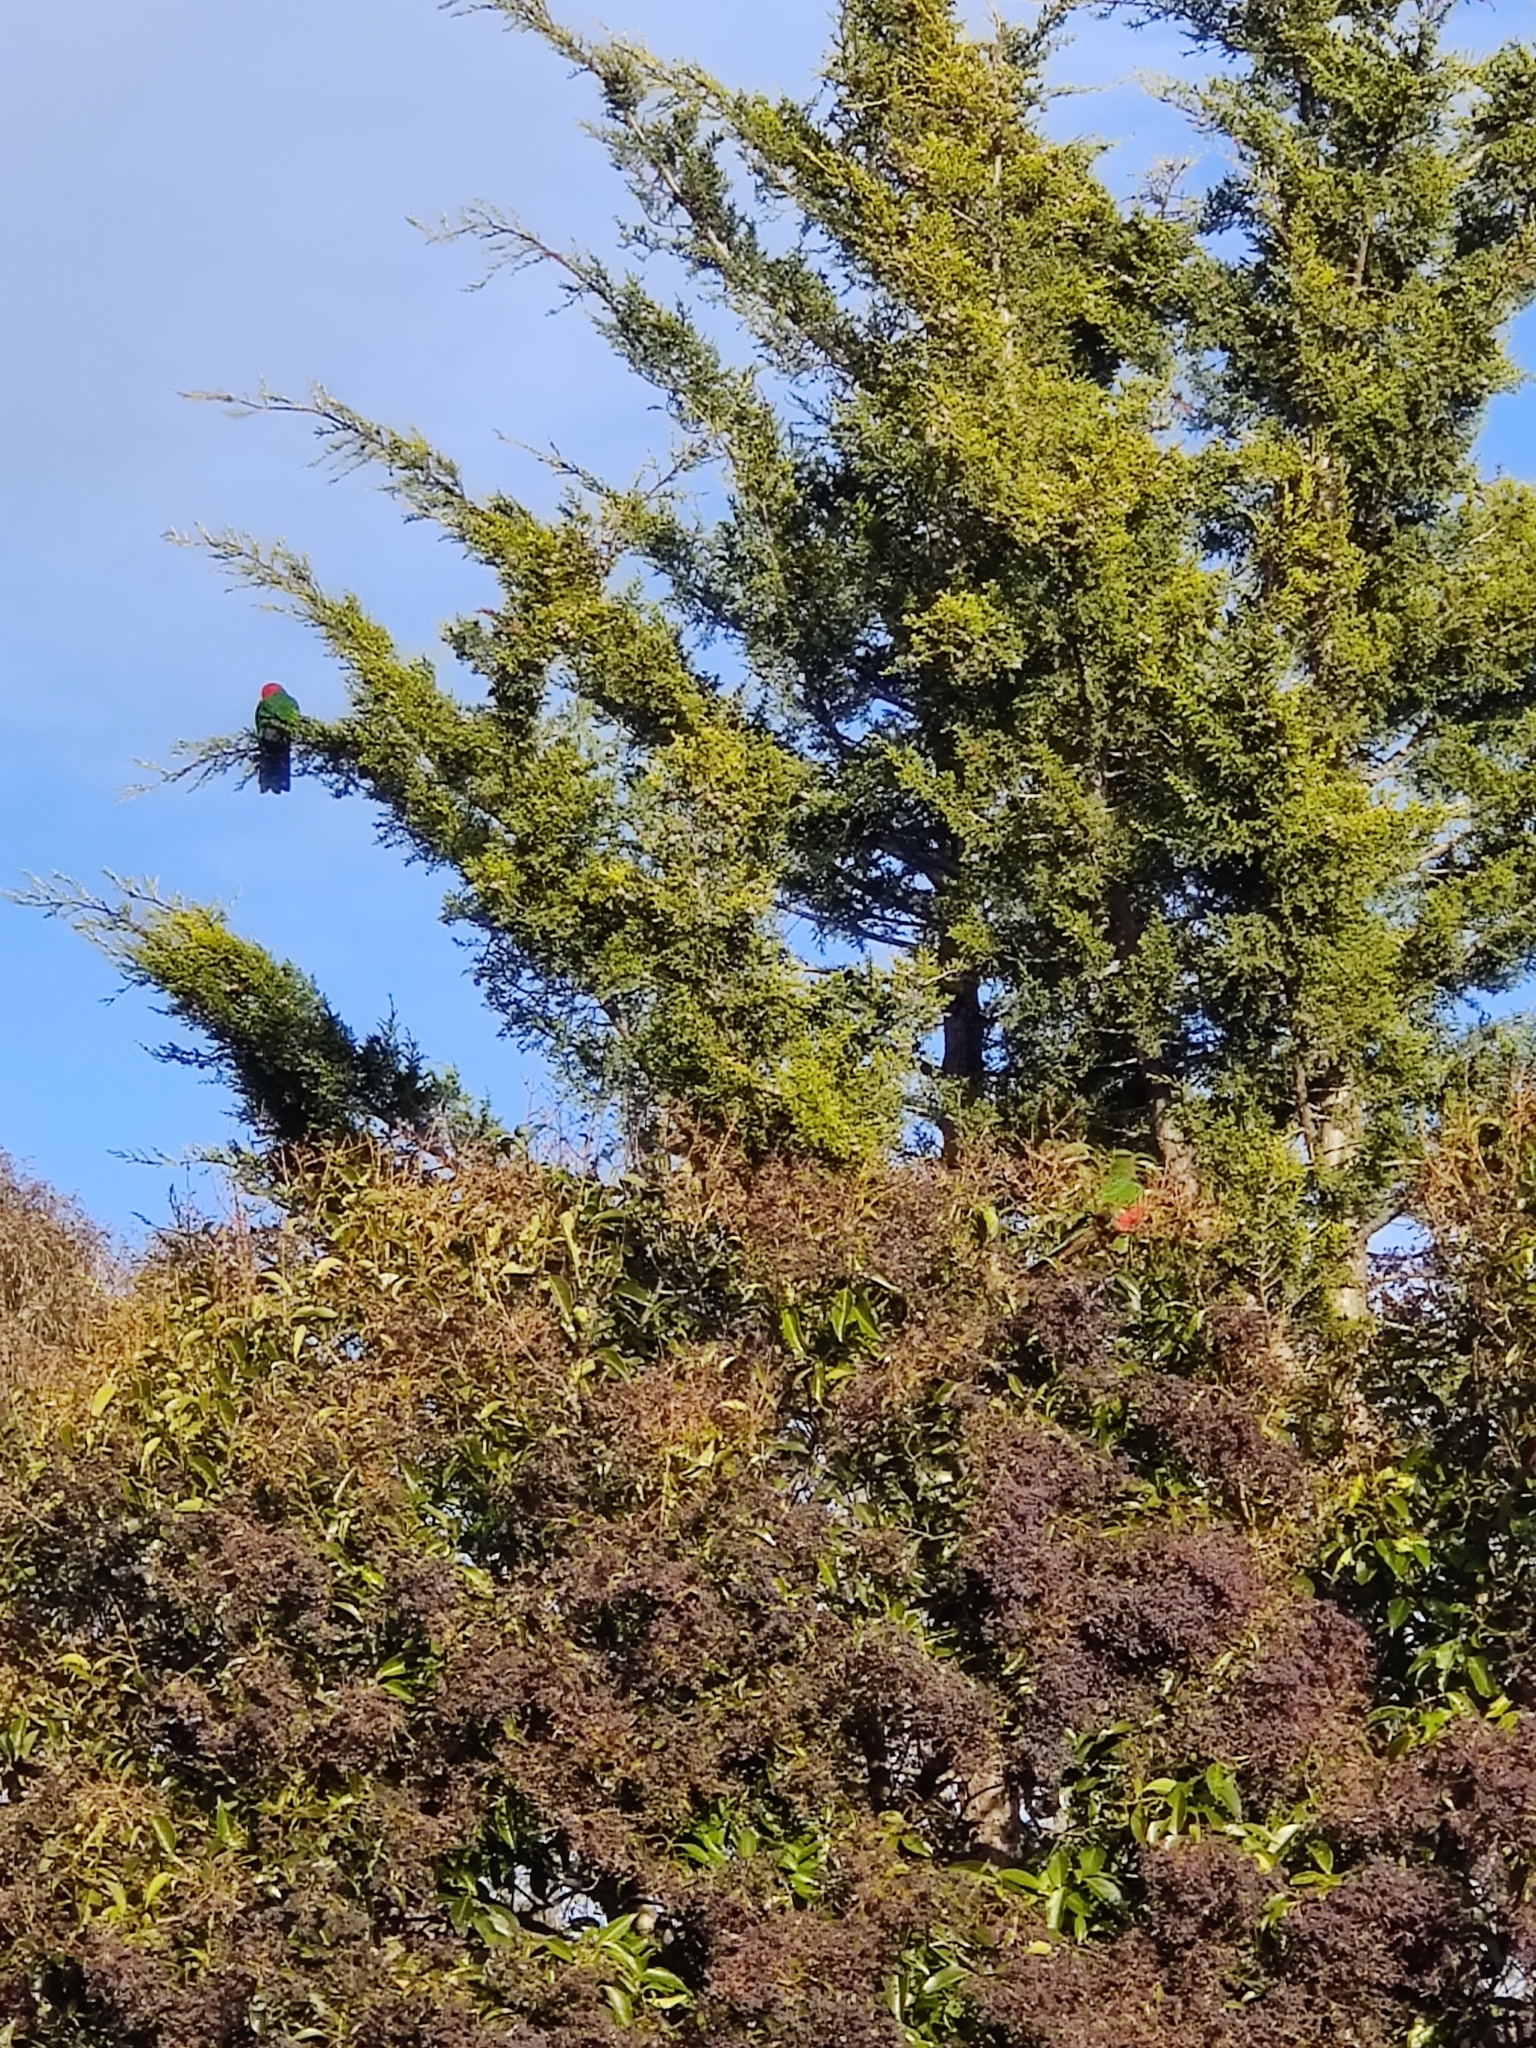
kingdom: Animalia
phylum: Chordata
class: Aves
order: Psittaciformes
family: Psittacidae
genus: Alisterus
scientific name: Alisterus scapularis
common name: Australian king parrot
